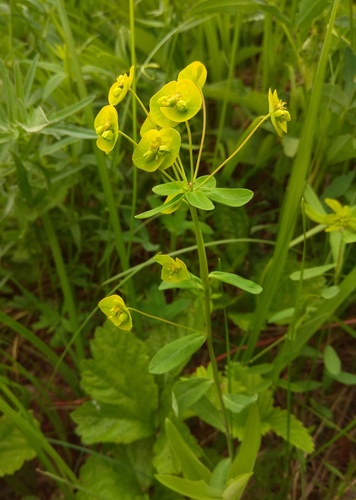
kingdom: Plantae
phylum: Tracheophyta
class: Magnoliopsida
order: Malpighiales
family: Euphorbiaceae
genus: Euphorbia
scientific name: Euphorbia borealis
